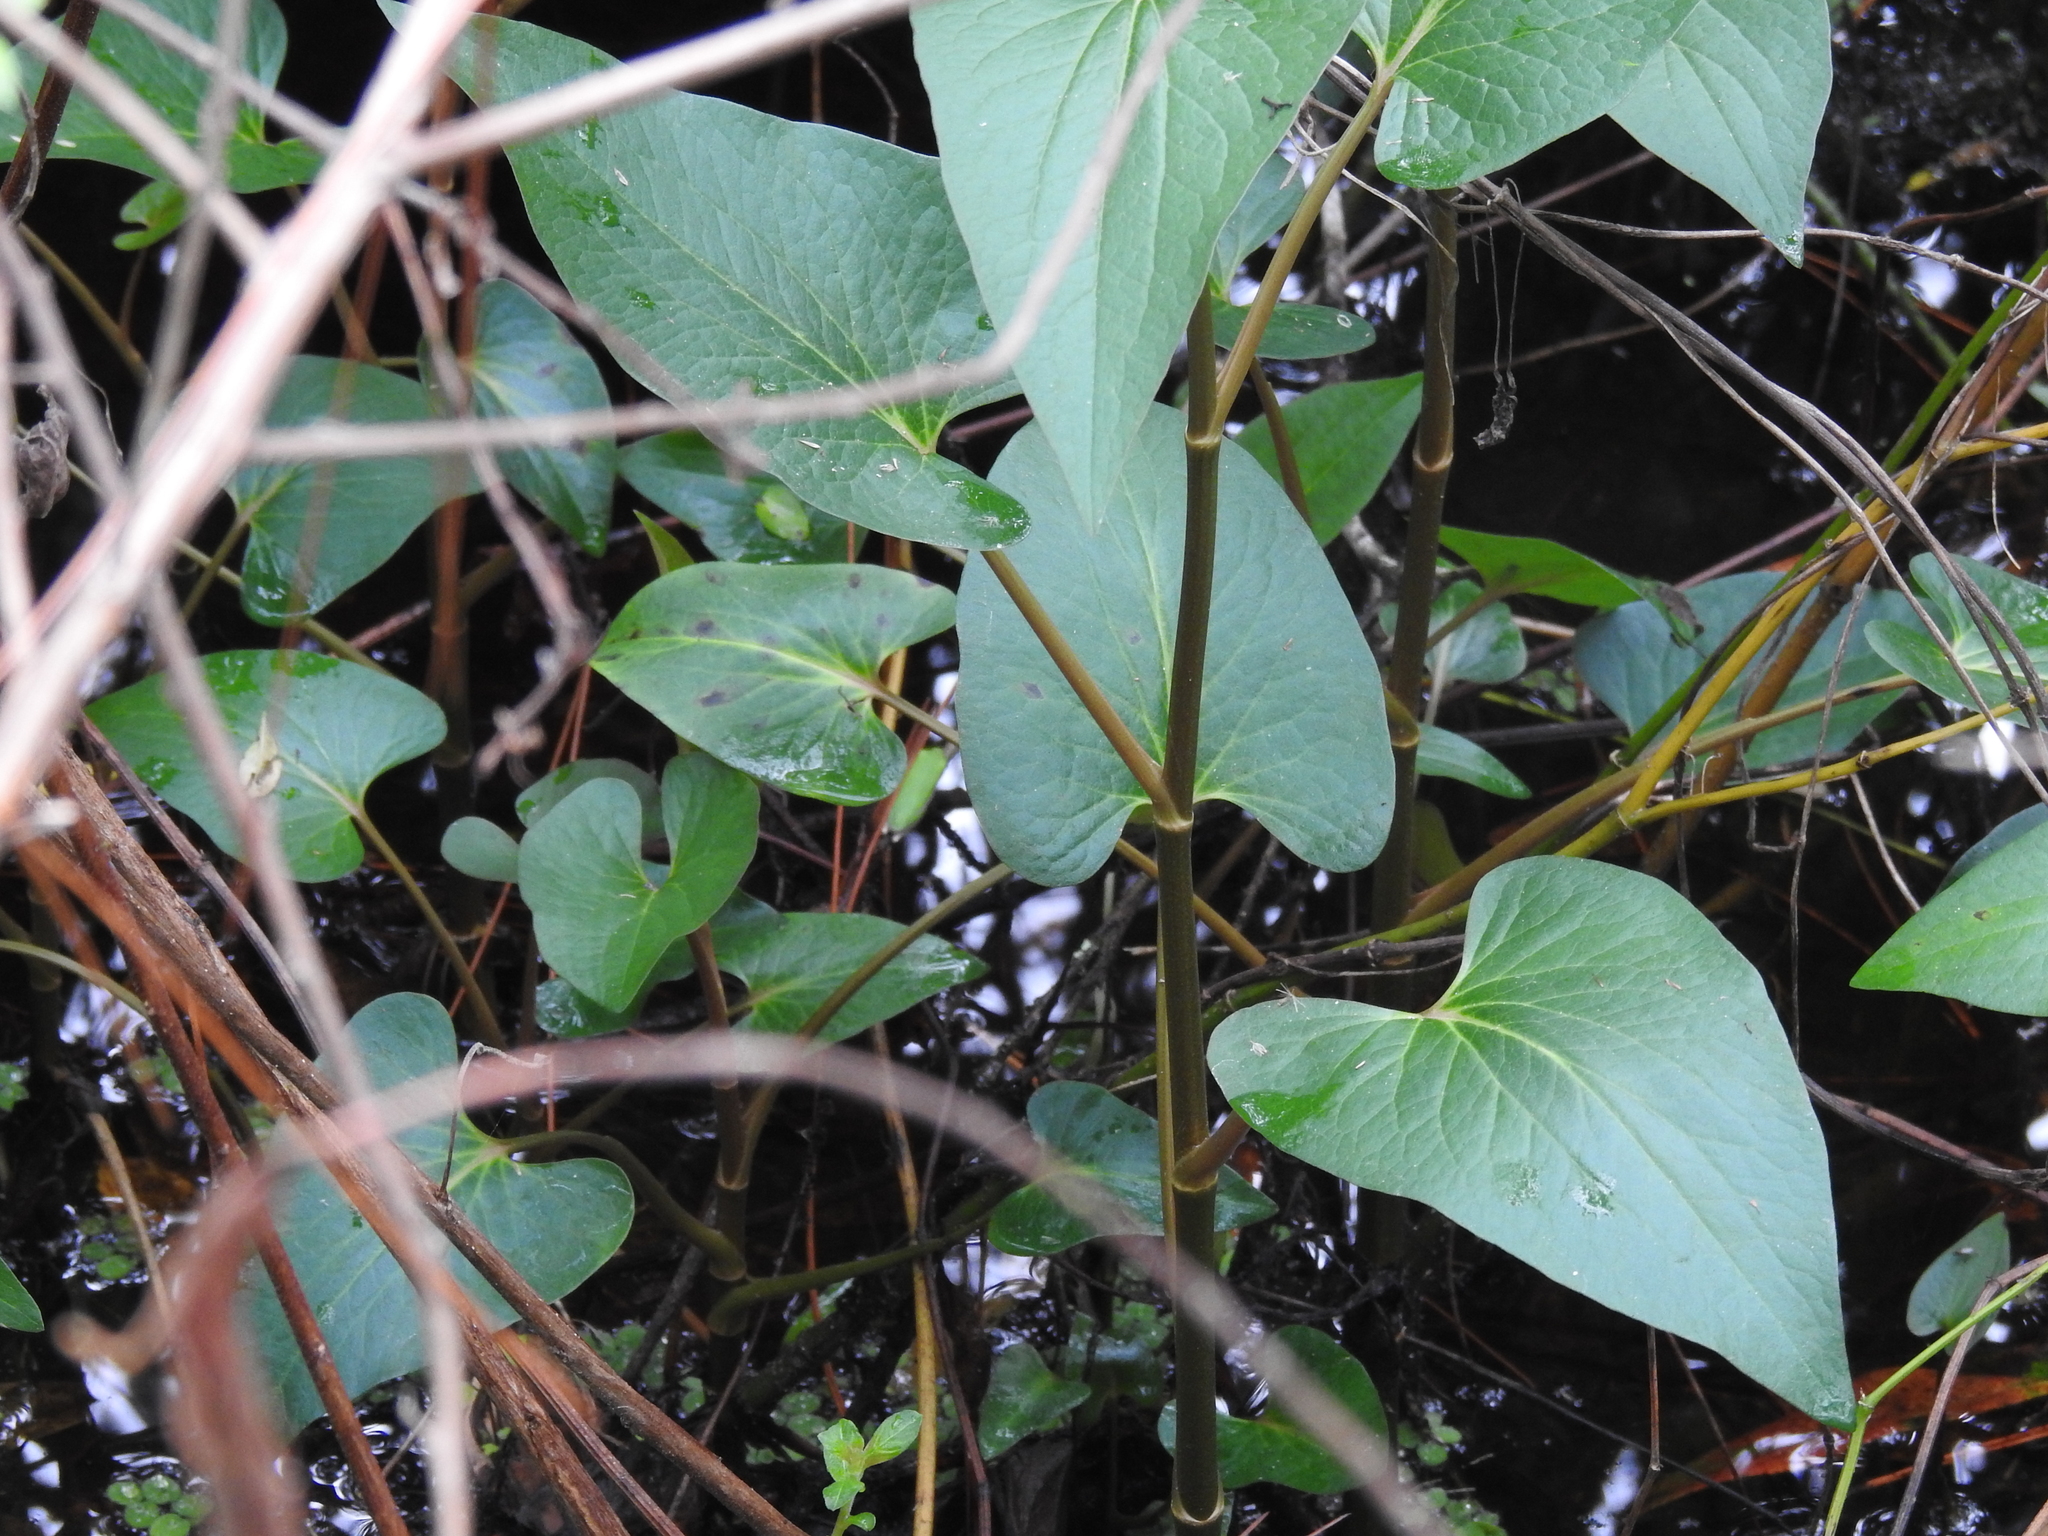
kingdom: Plantae
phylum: Tracheophyta
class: Magnoliopsida
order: Piperales
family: Saururaceae
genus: Saururus
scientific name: Saururus cernuus
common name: Lizard's-tail
